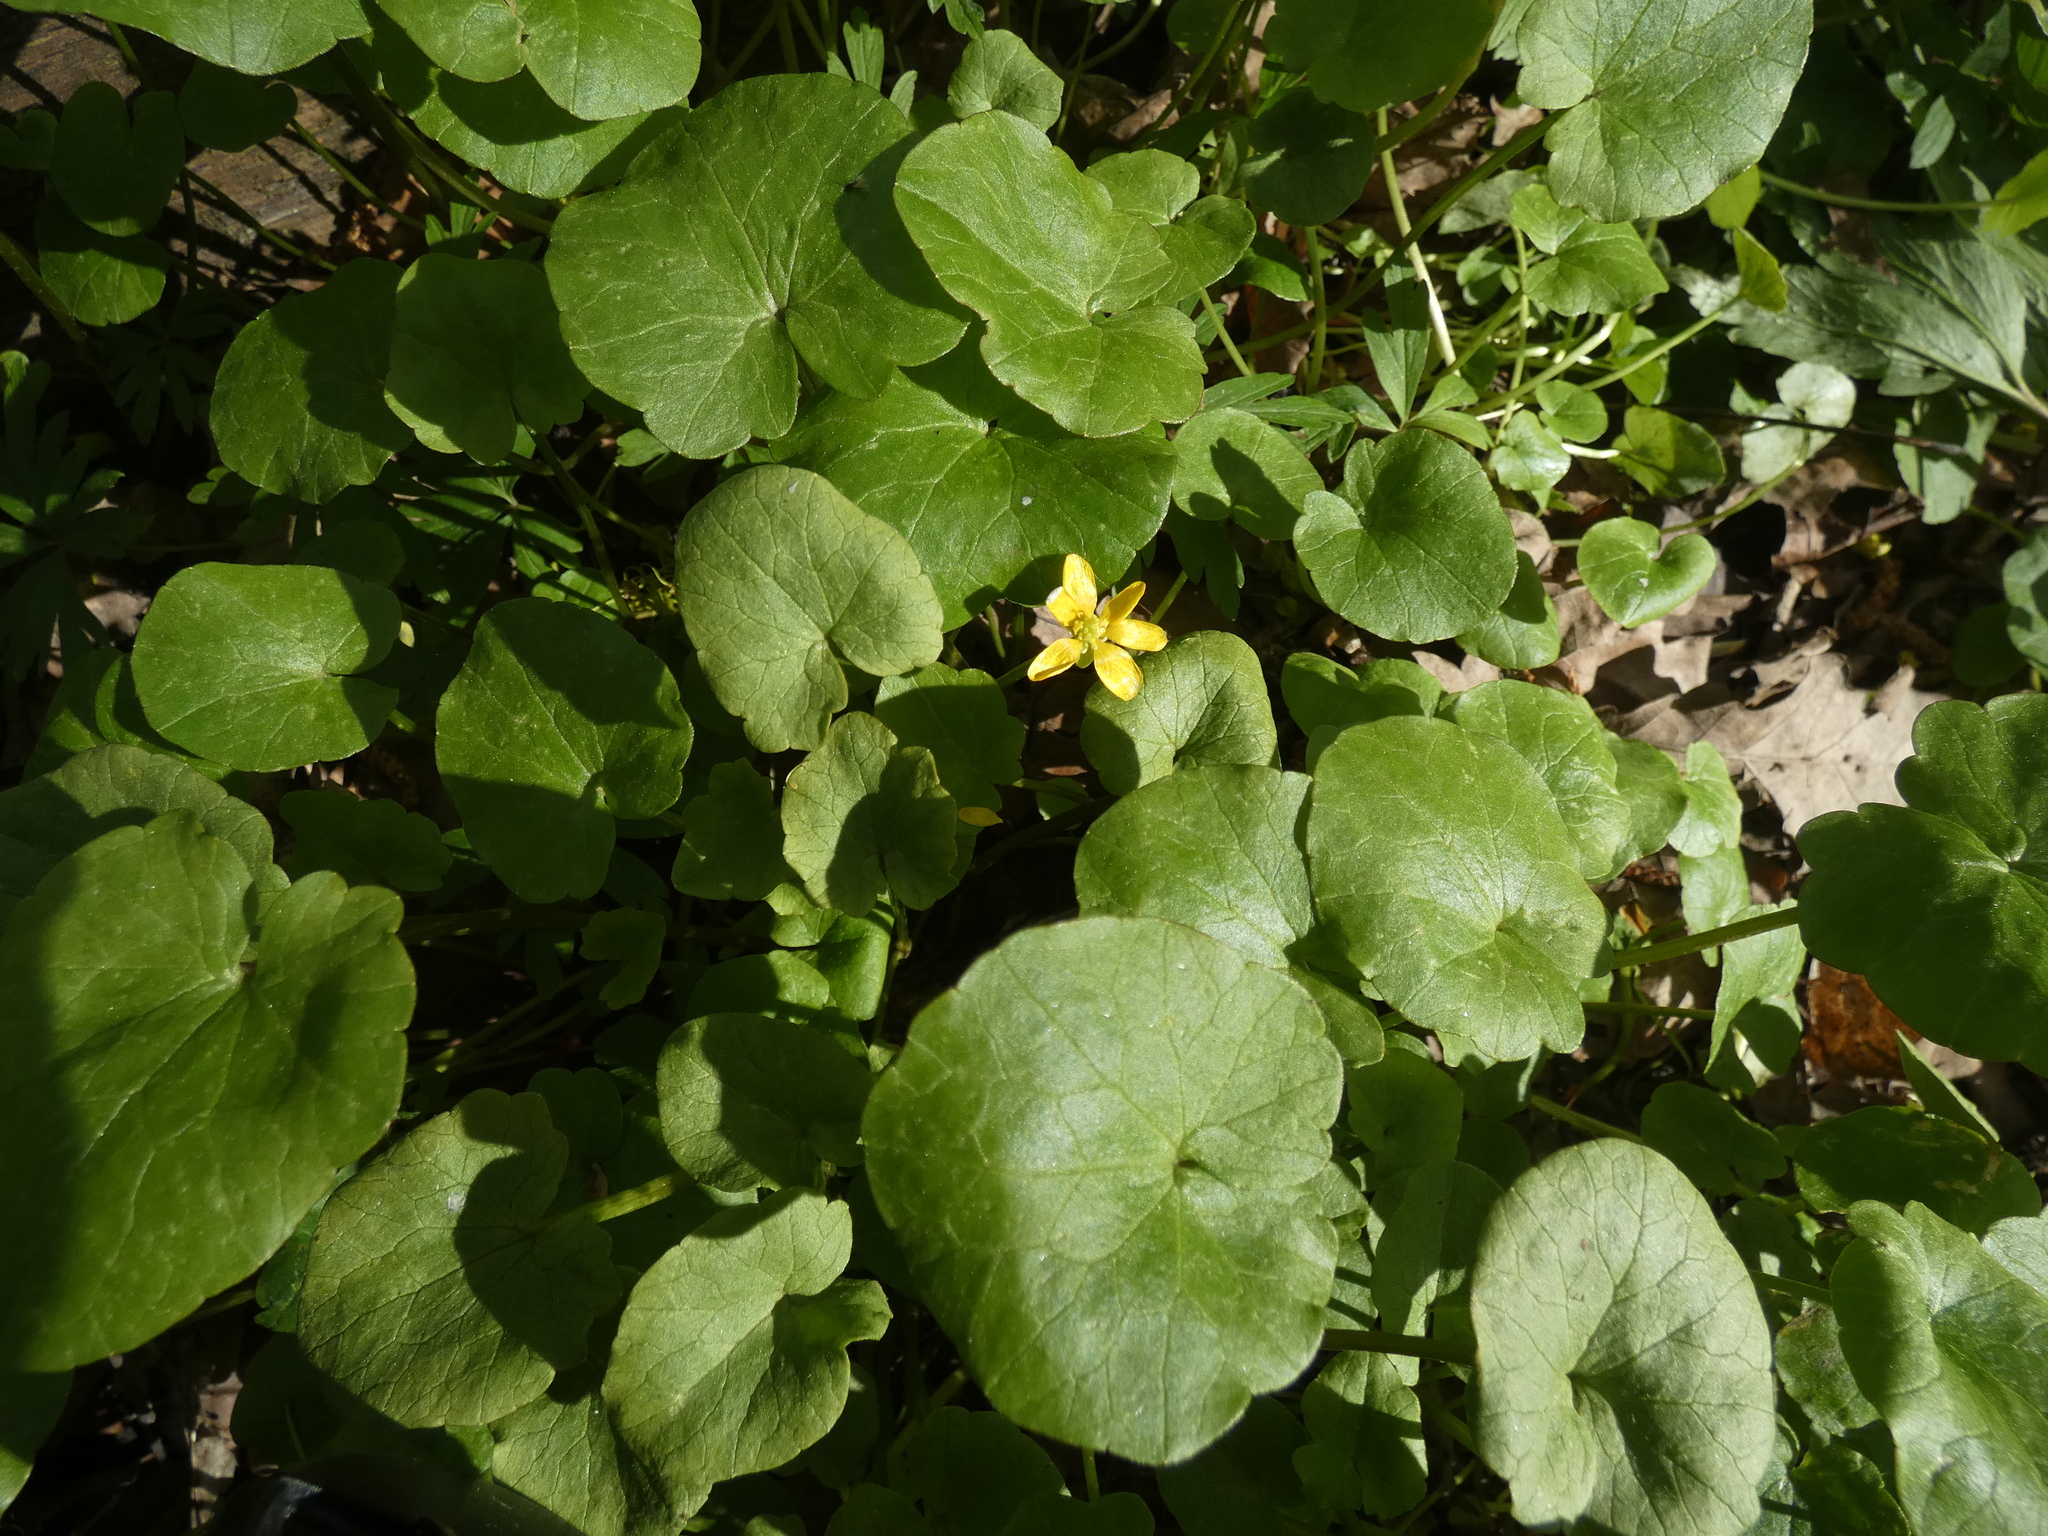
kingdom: Plantae
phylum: Tracheophyta
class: Magnoliopsida
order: Ranunculales
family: Ranunculaceae
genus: Ficaria
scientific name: Ficaria verna
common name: Lesser celandine
